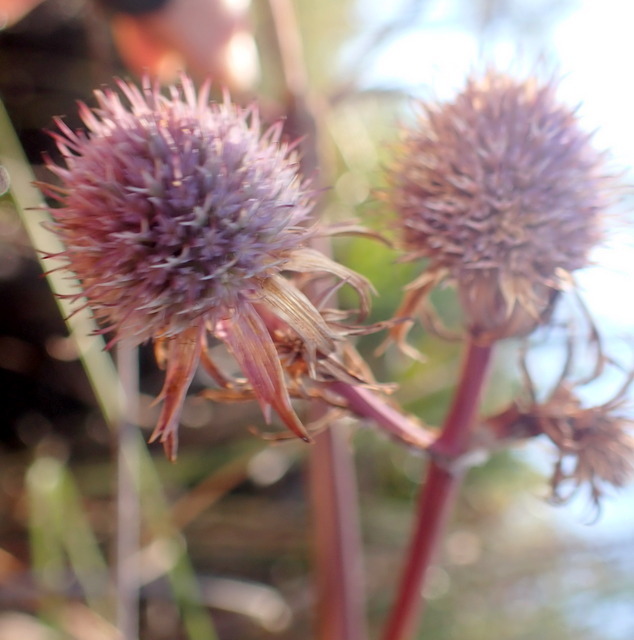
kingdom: Plantae
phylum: Tracheophyta
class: Magnoliopsida
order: Apiales
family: Apiaceae
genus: Eryngium
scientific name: Eryngium aquaticum
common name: Water eryngo
